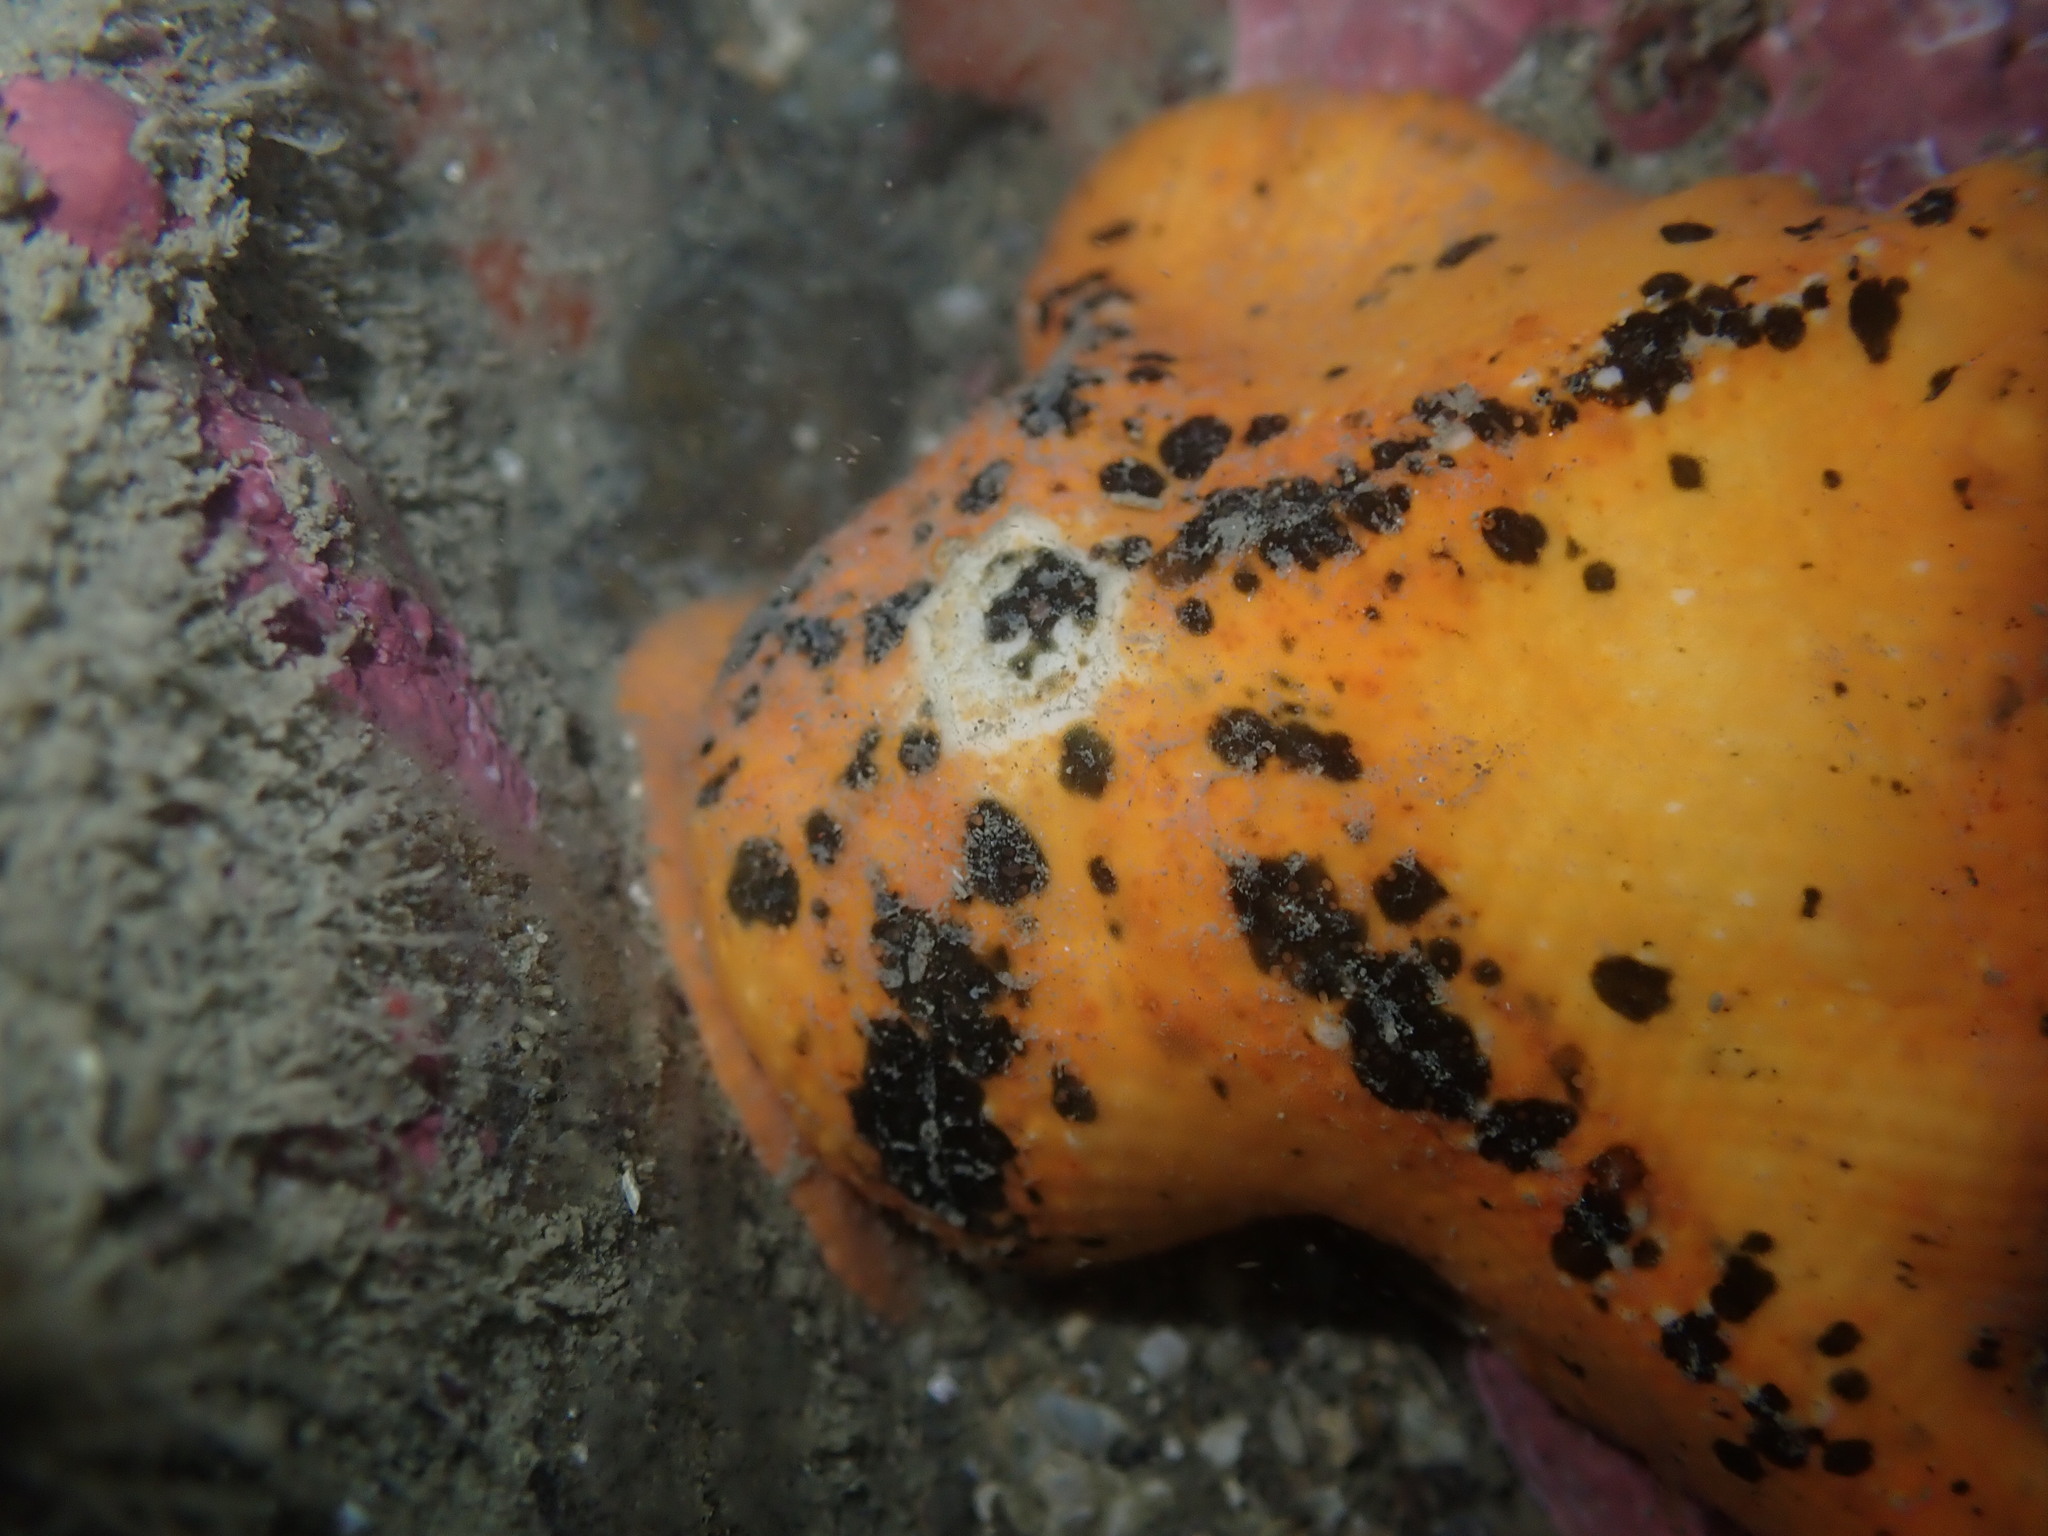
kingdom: Animalia
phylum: Echinodermata
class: Asteroidea
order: Valvatida
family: Asterinidae
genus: Stegnaster
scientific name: Stegnaster inflatus
